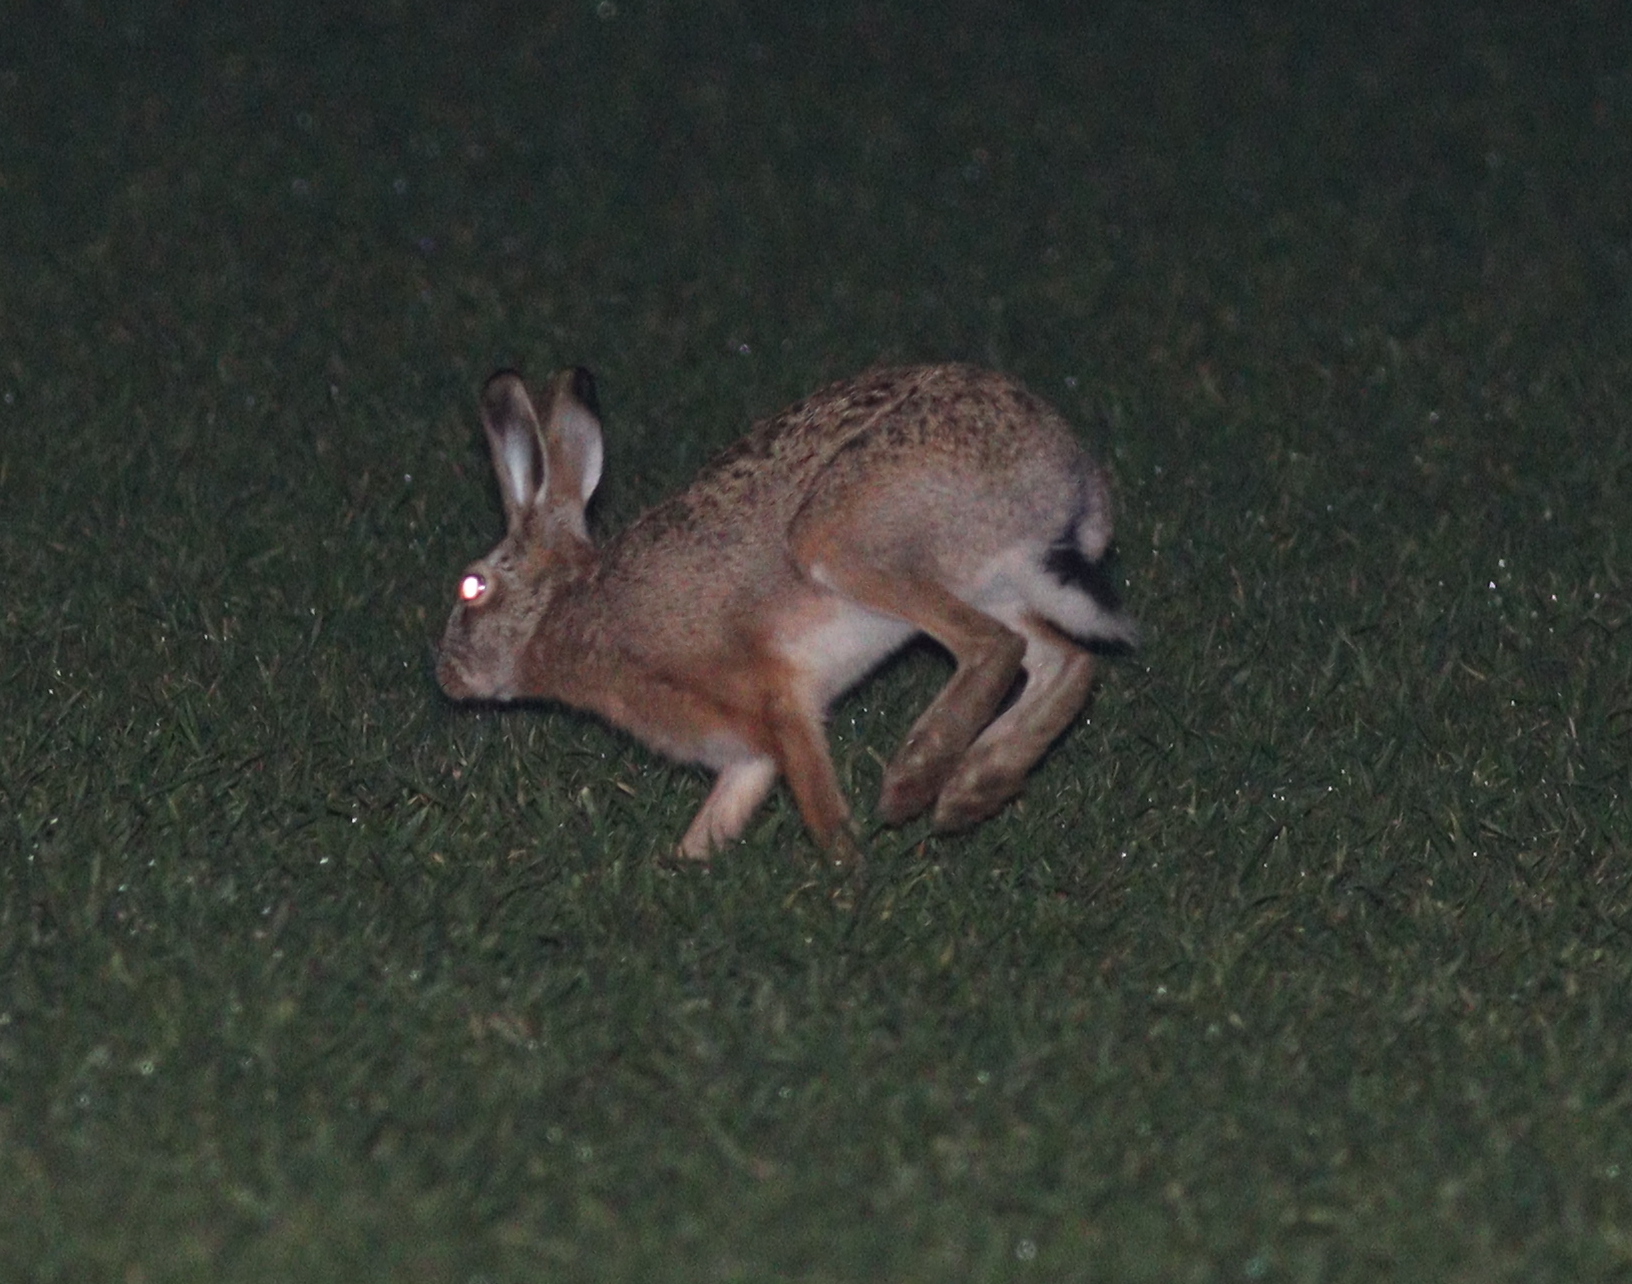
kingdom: Animalia
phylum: Chordata
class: Mammalia
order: Lagomorpha
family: Leporidae
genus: Lepus
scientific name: Lepus europaeus
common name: European hare
